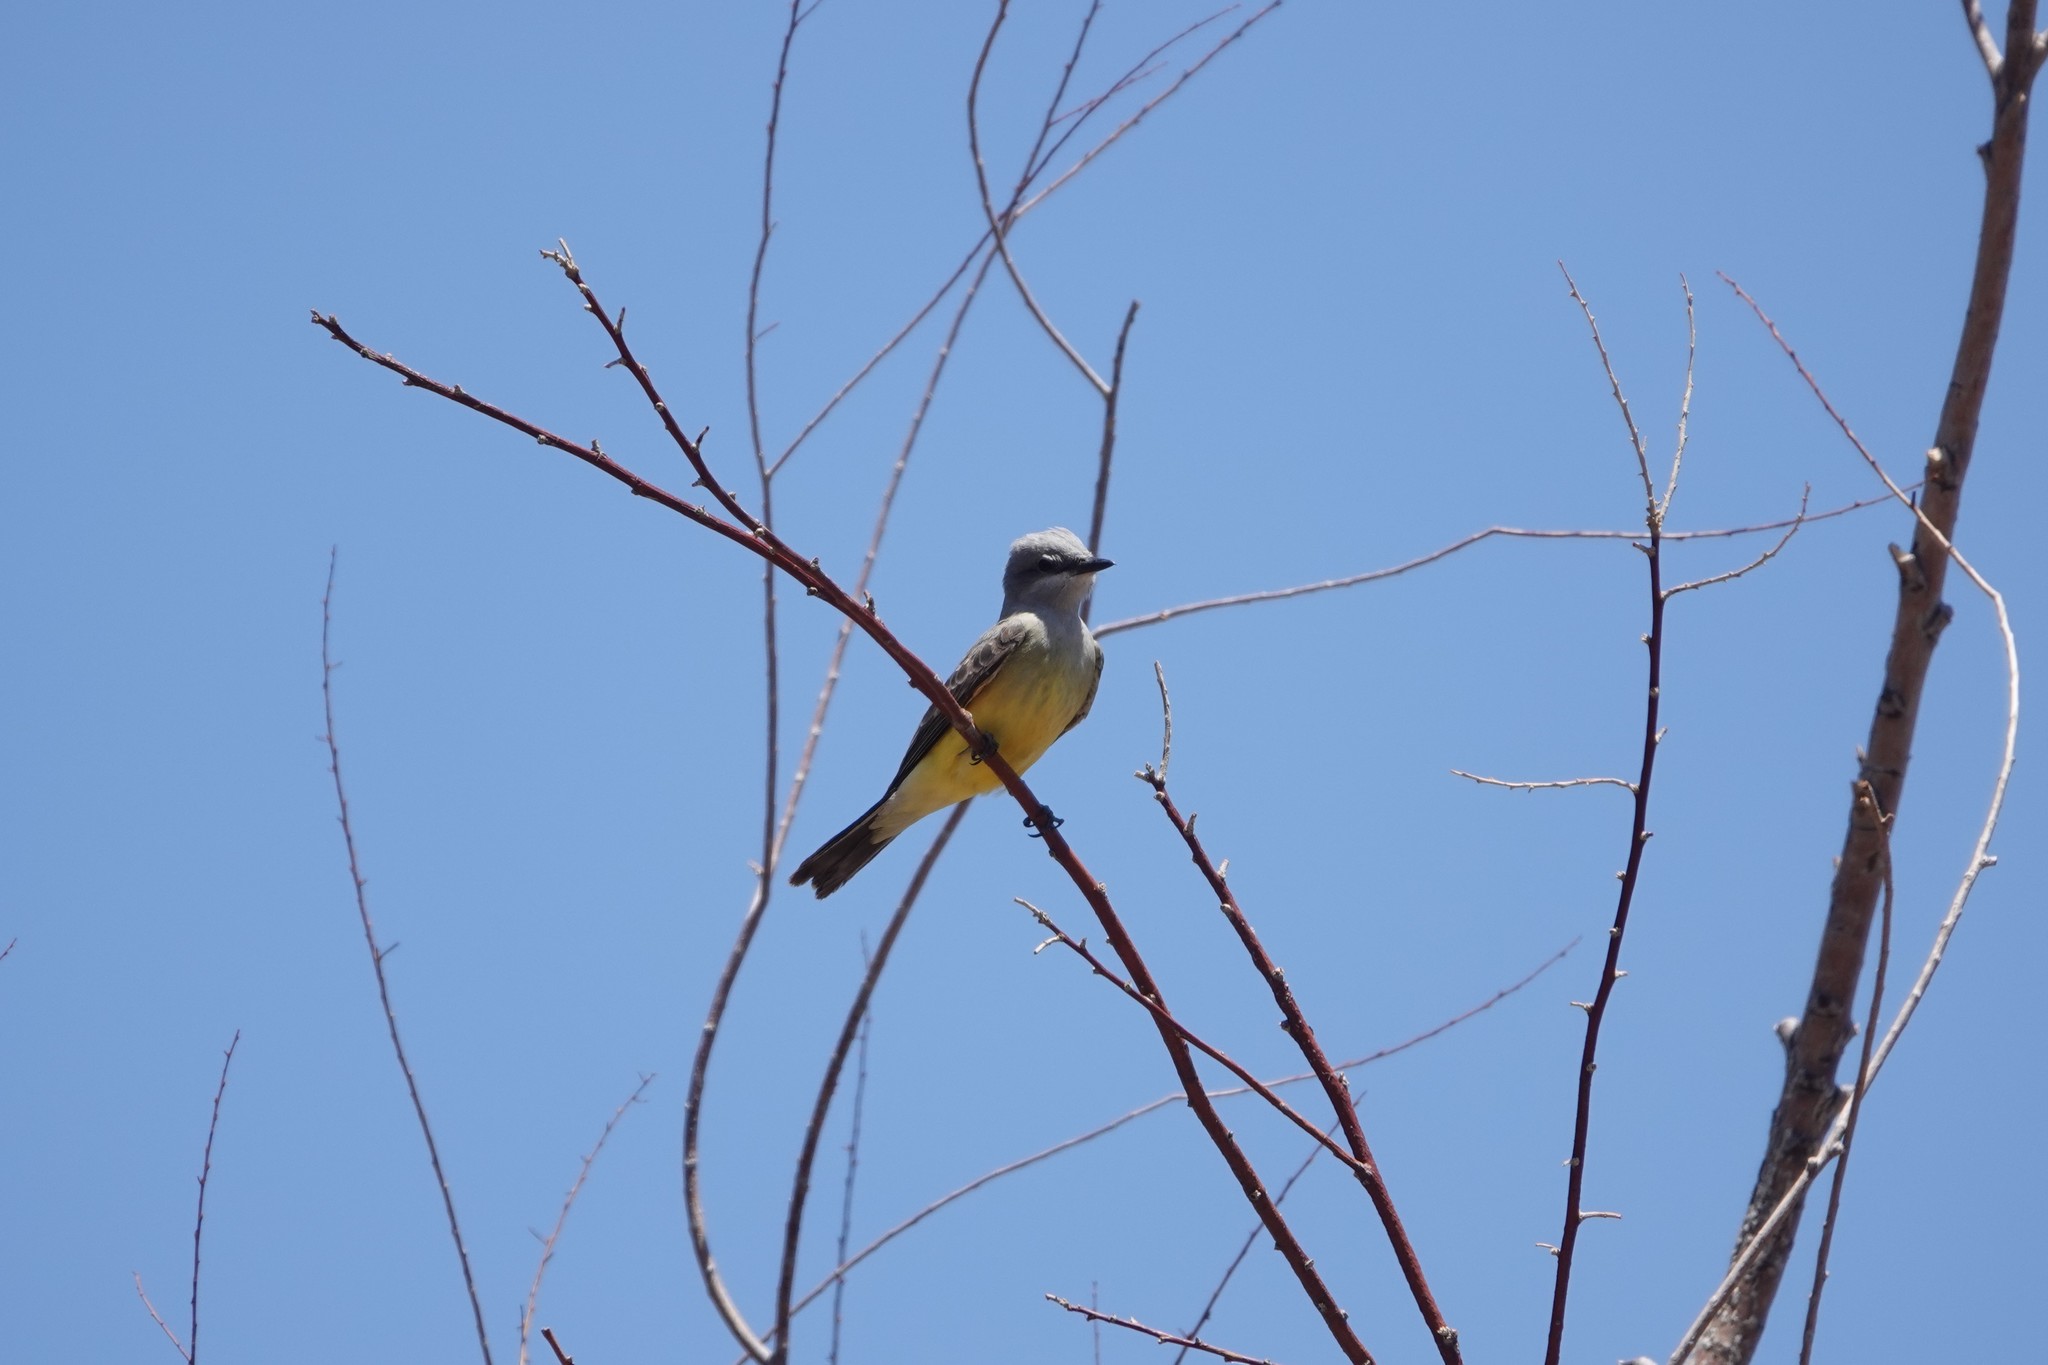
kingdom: Animalia
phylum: Chordata
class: Aves
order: Passeriformes
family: Tyrannidae
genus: Tyrannus
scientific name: Tyrannus verticalis
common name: Western kingbird
